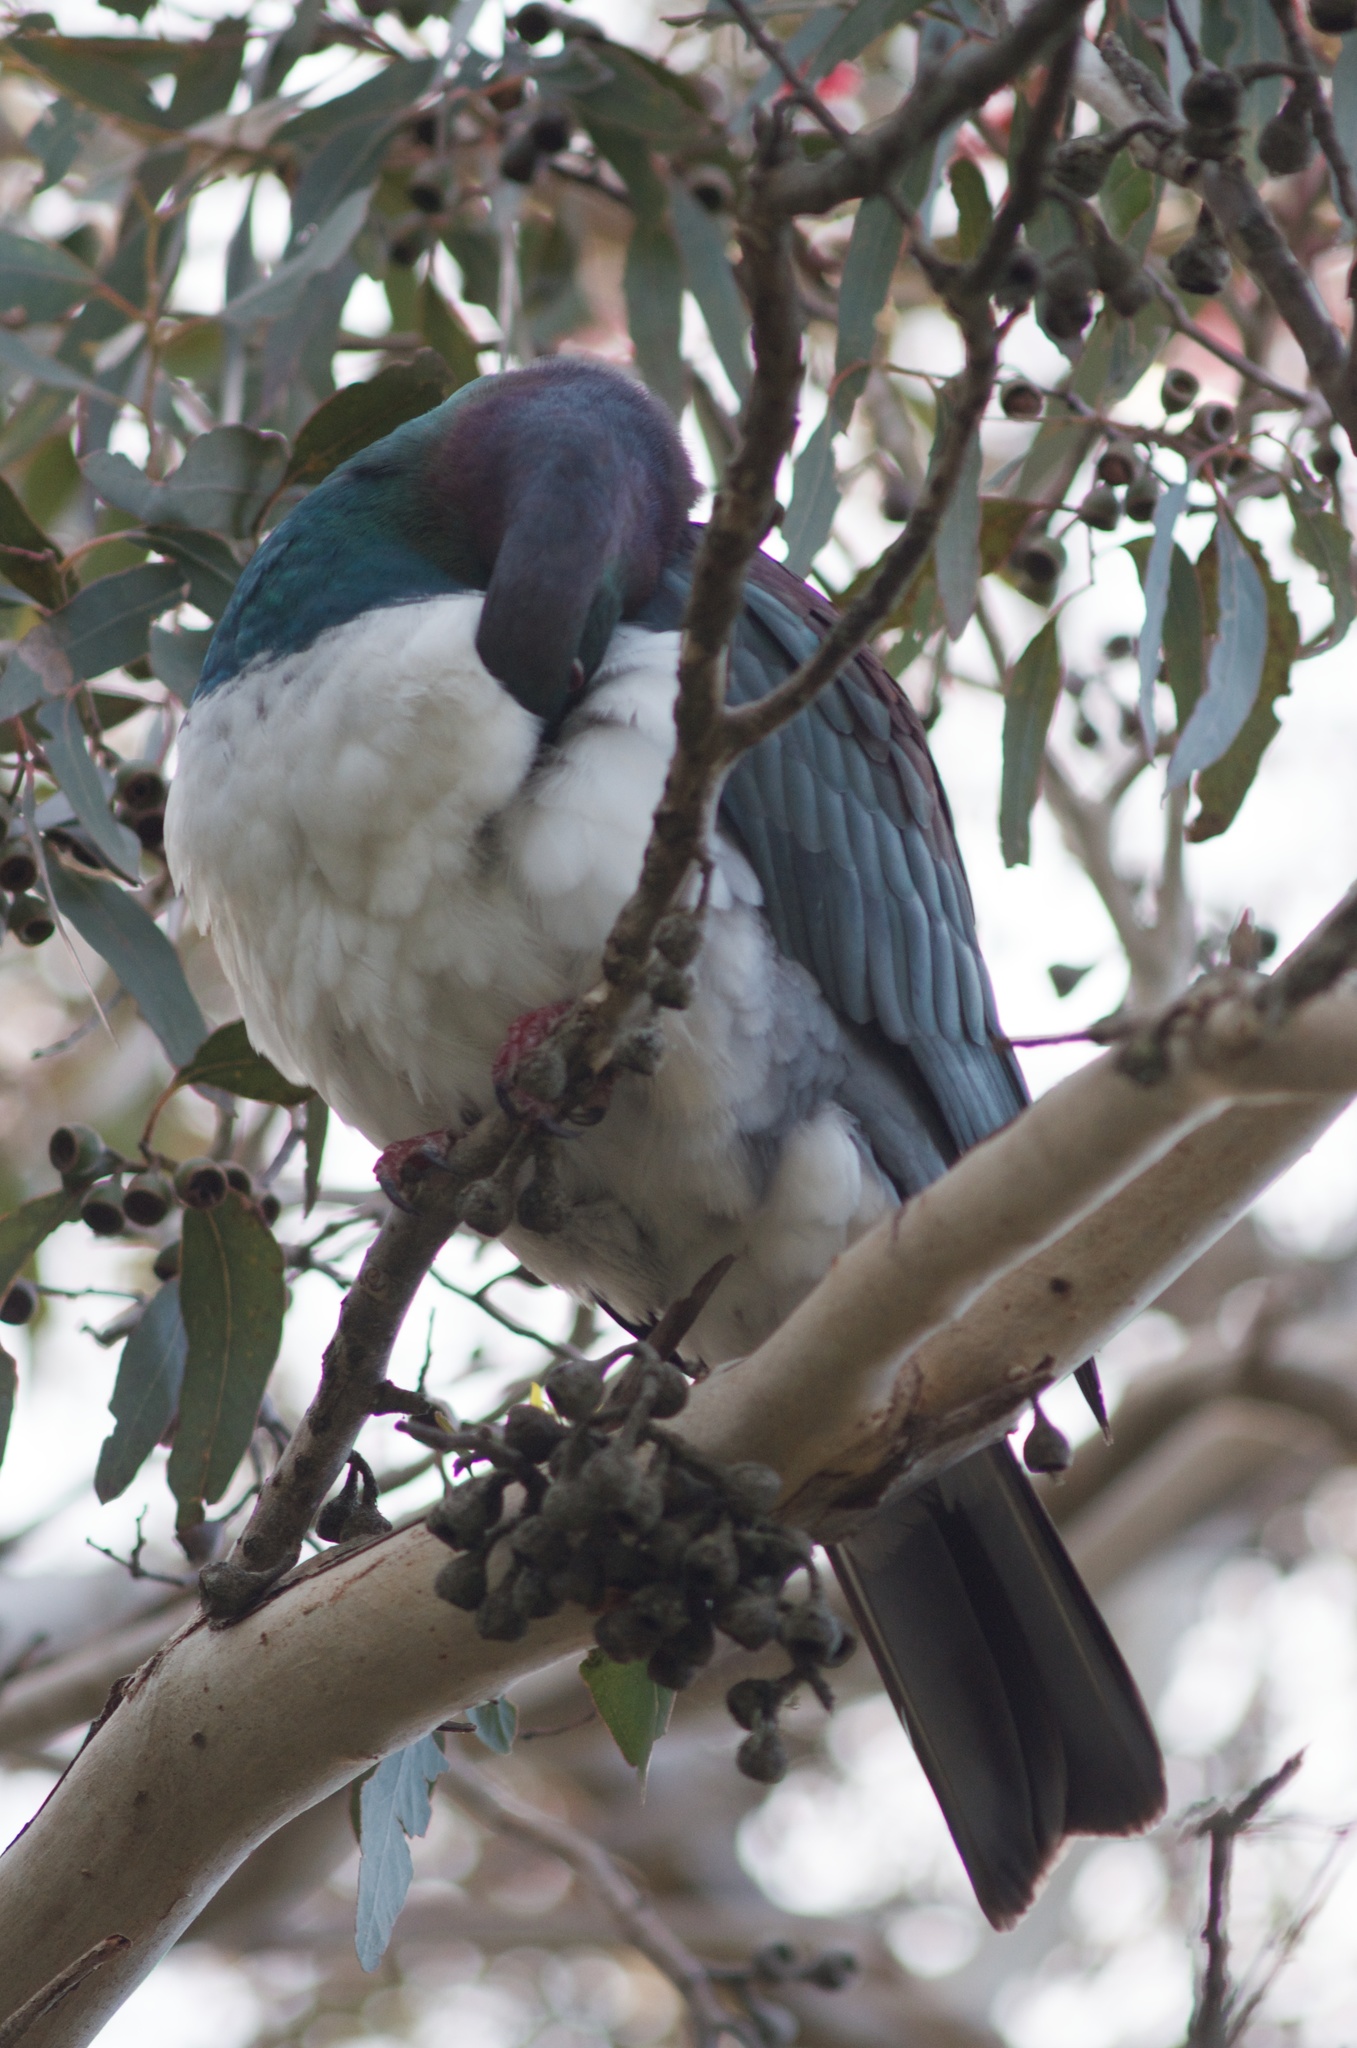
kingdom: Animalia
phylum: Chordata
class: Aves
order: Columbiformes
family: Columbidae
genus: Hemiphaga
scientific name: Hemiphaga novaeseelandiae
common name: New zealand pigeon
